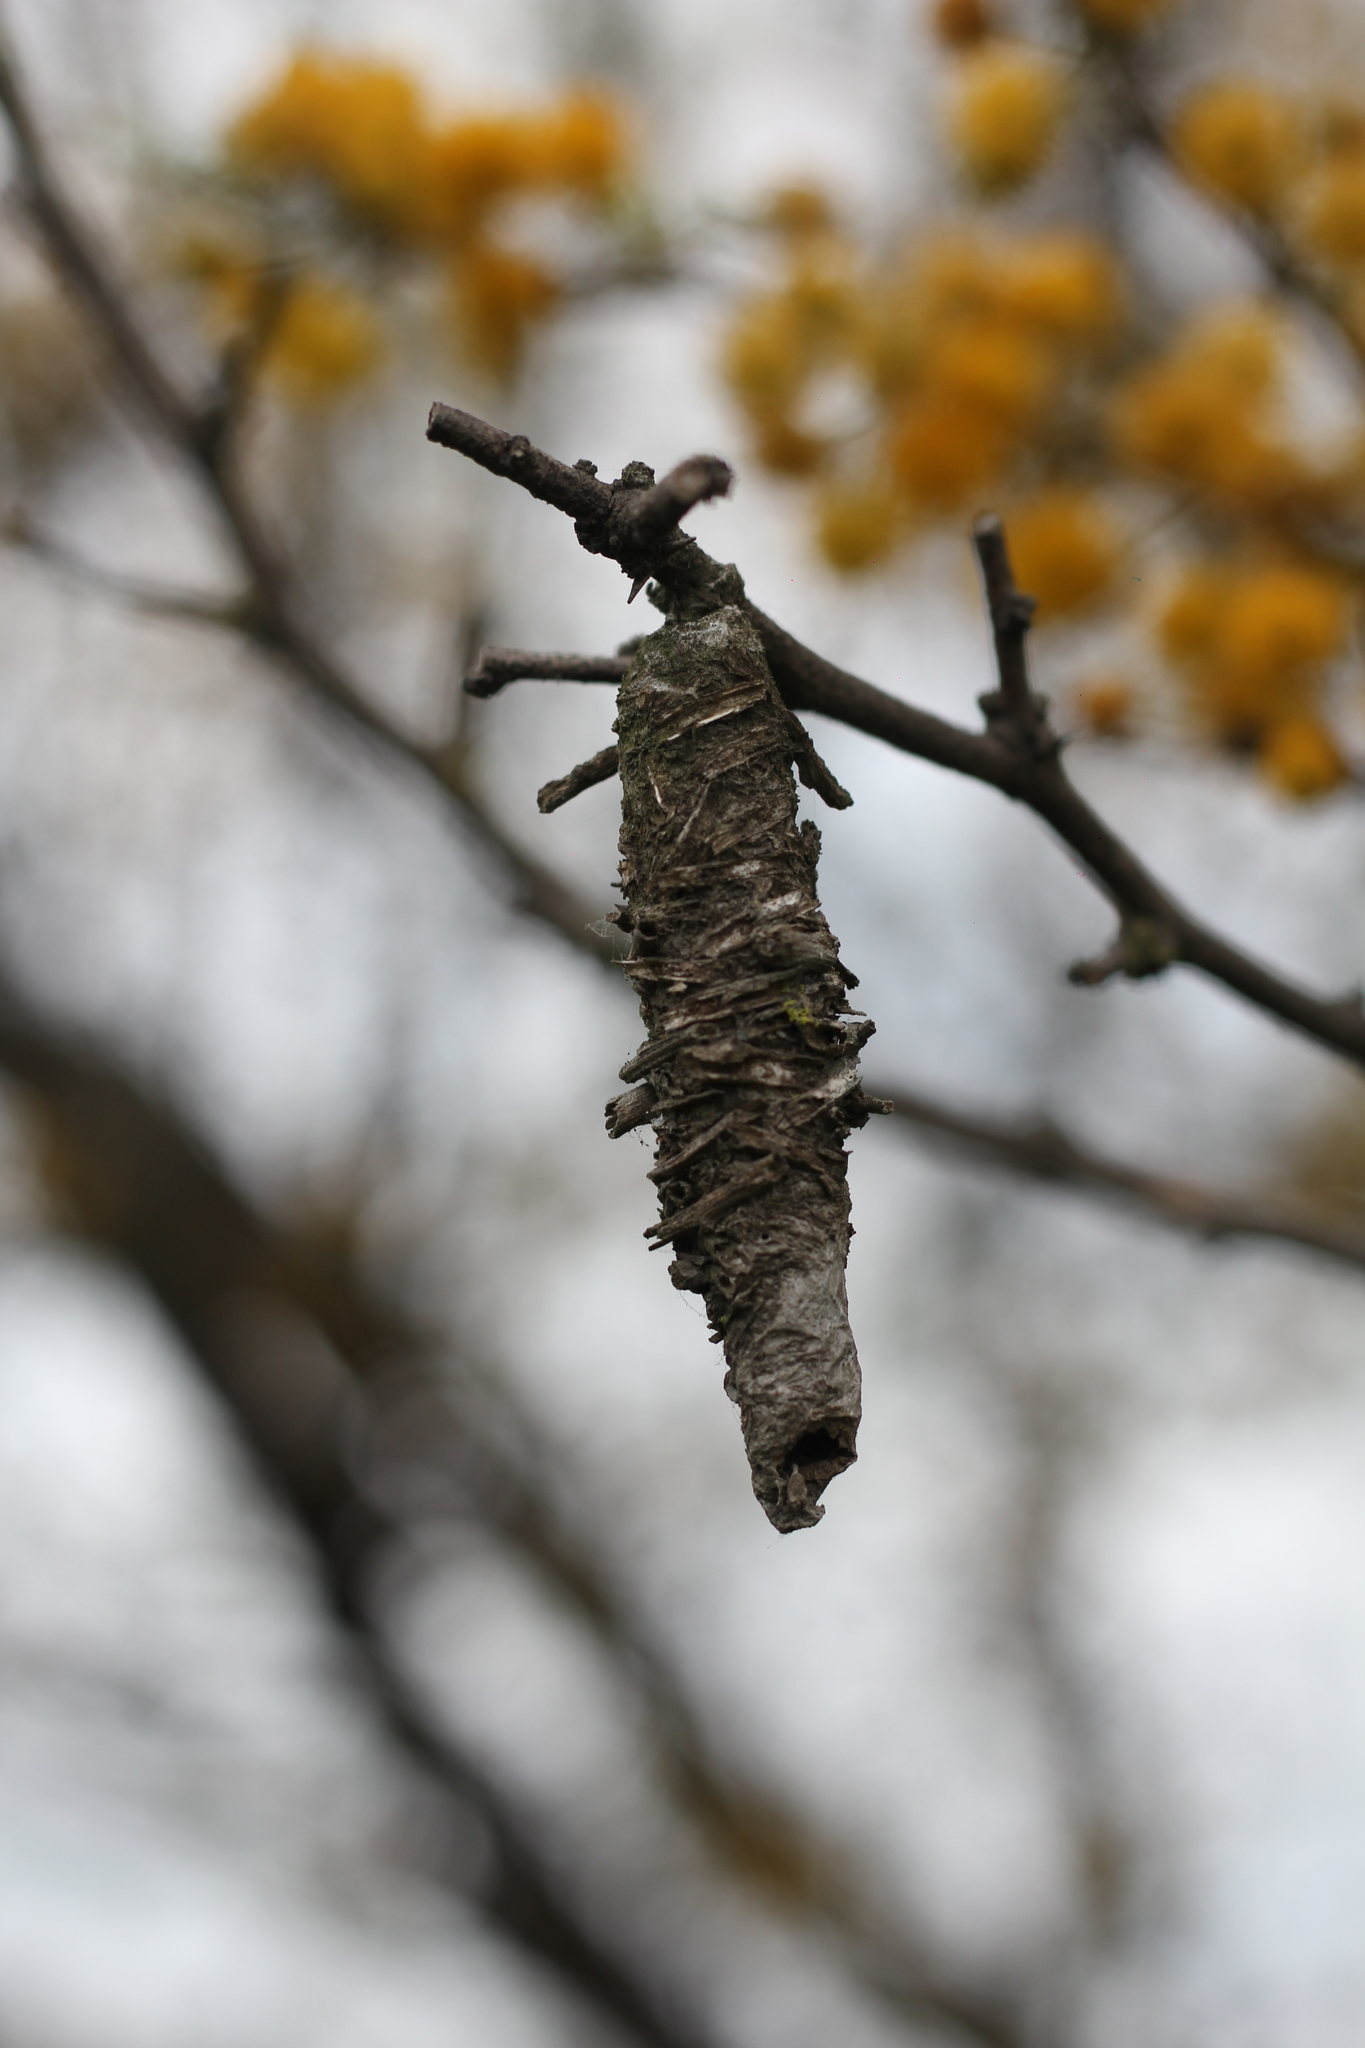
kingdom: Animalia
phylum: Arthropoda
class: Insecta
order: Lepidoptera
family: Psychidae
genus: Oiketicus
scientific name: Oiketicus
